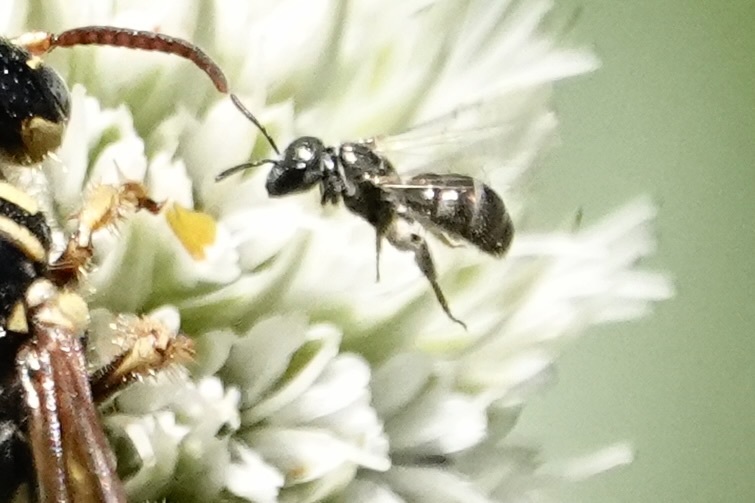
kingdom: Animalia
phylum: Arthropoda
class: Insecta
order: Hymenoptera
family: Halictidae
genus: Dialictus
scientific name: Dialictus
